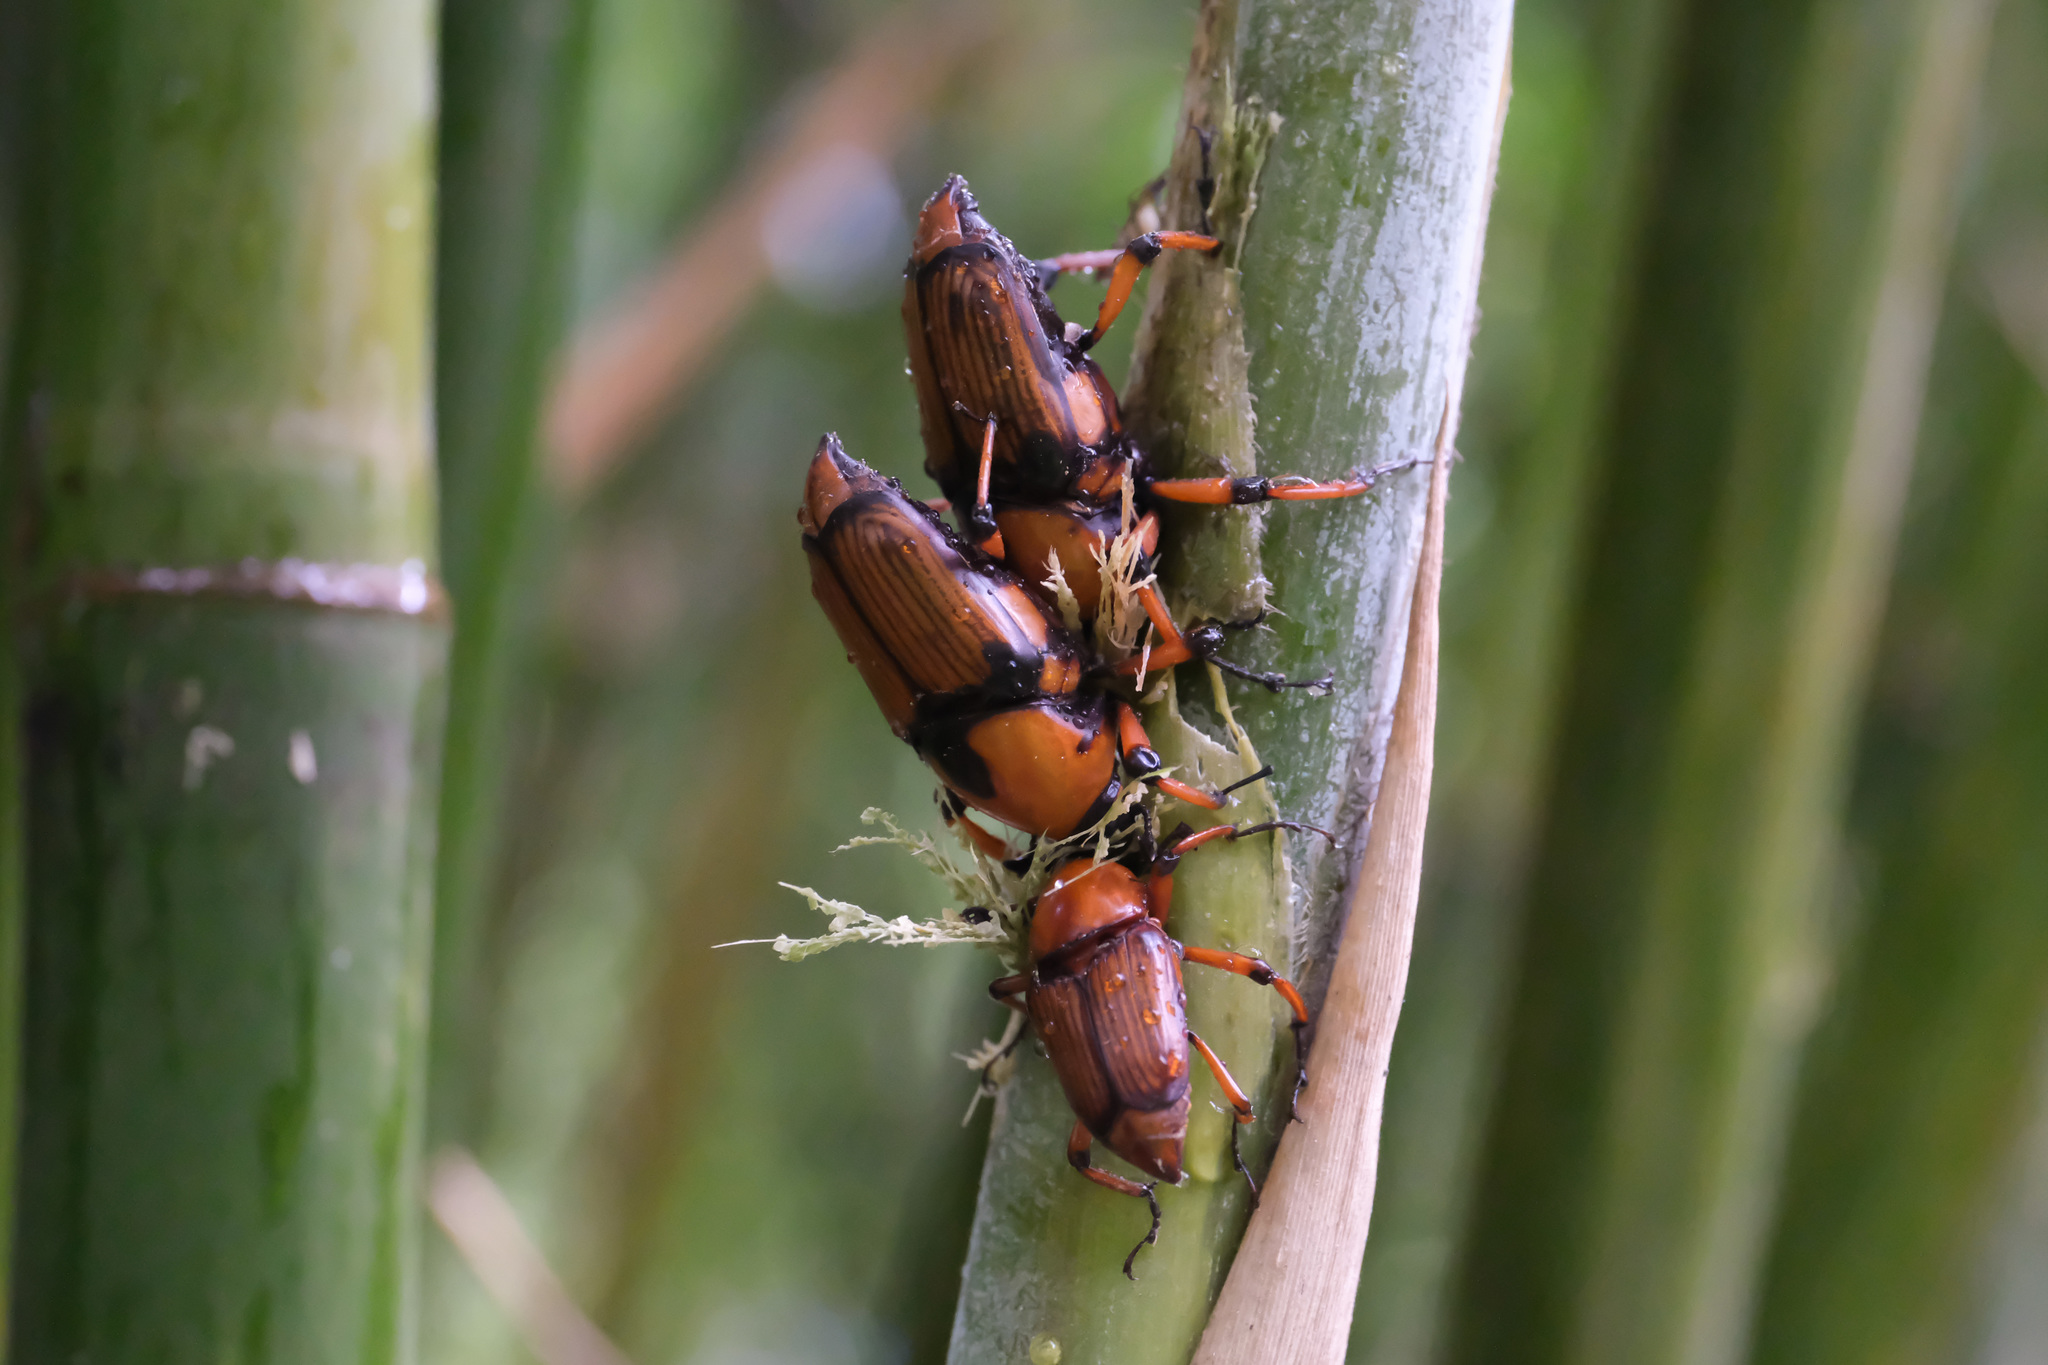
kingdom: Animalia
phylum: Arthropoda
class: Insecta
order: Coleoptera
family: Dryophthoridae
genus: Cyrtotrachelus
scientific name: Cyrtotrachelus thompsoni
